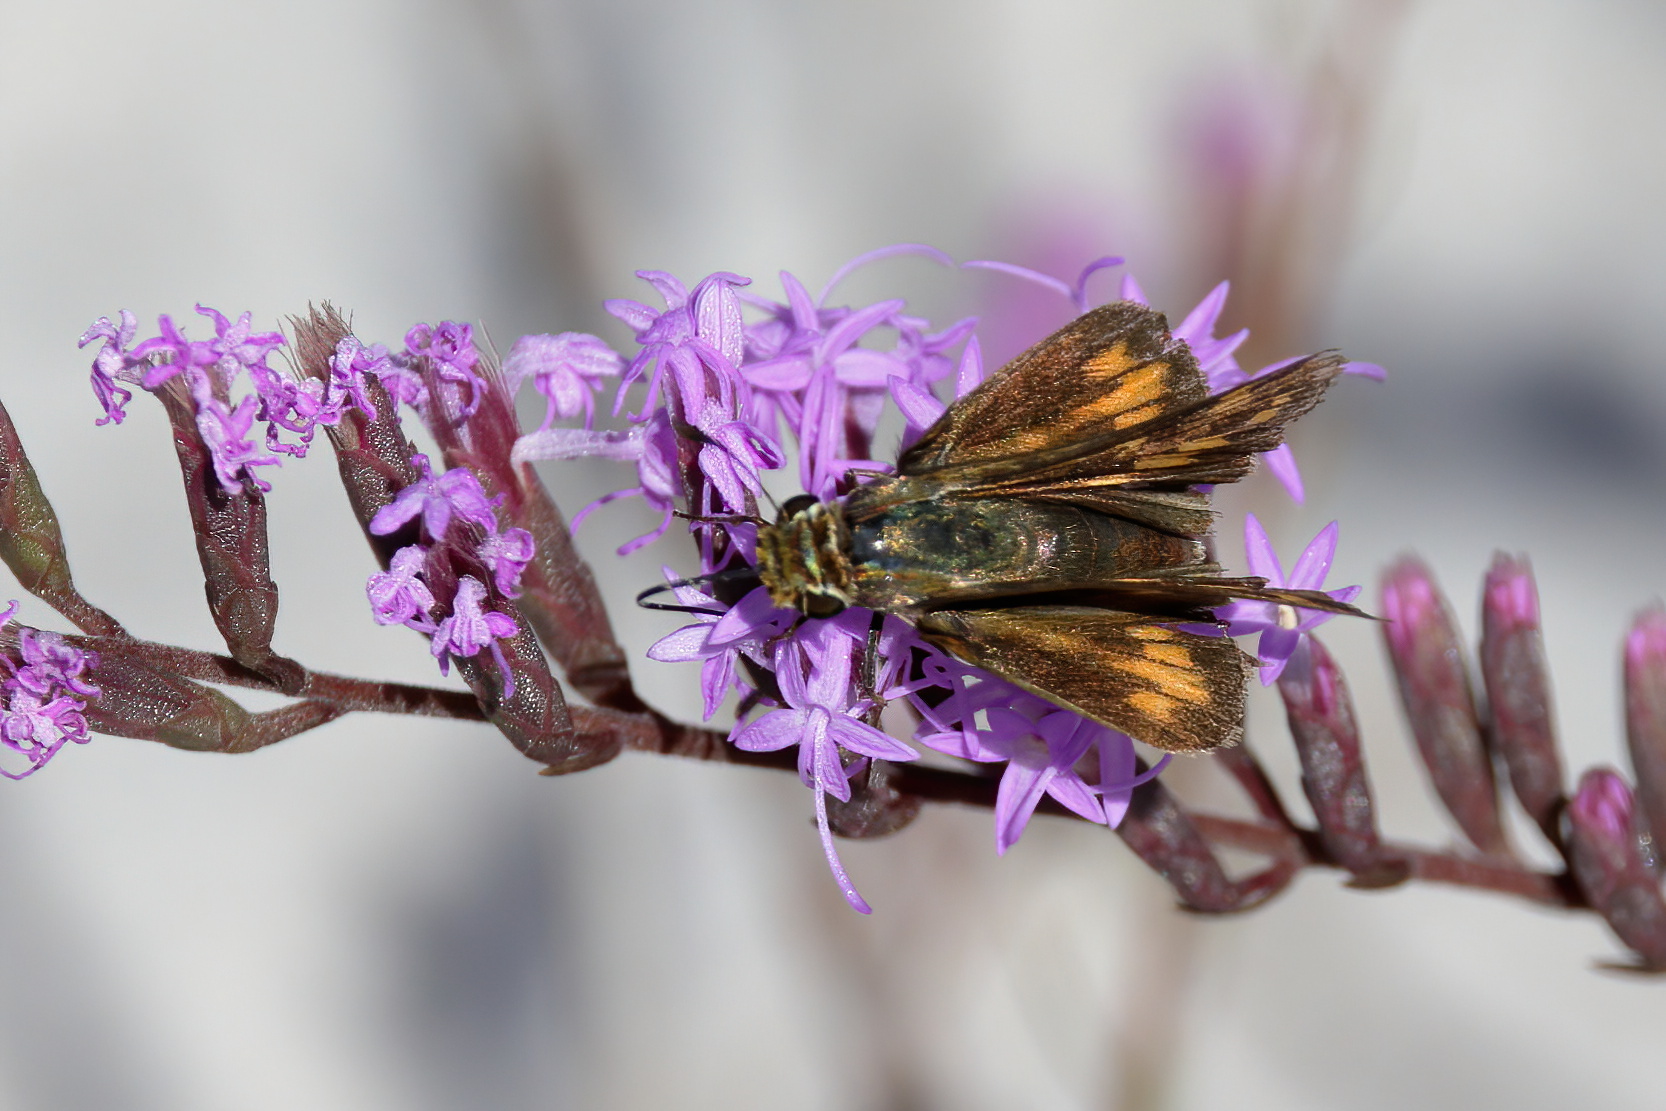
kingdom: Animalia
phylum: Arthropoda
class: Insecta
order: Lepidoptera
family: Hesperiidae
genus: Hylephila
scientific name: Hylephila phyleus
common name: Fiery skipper
